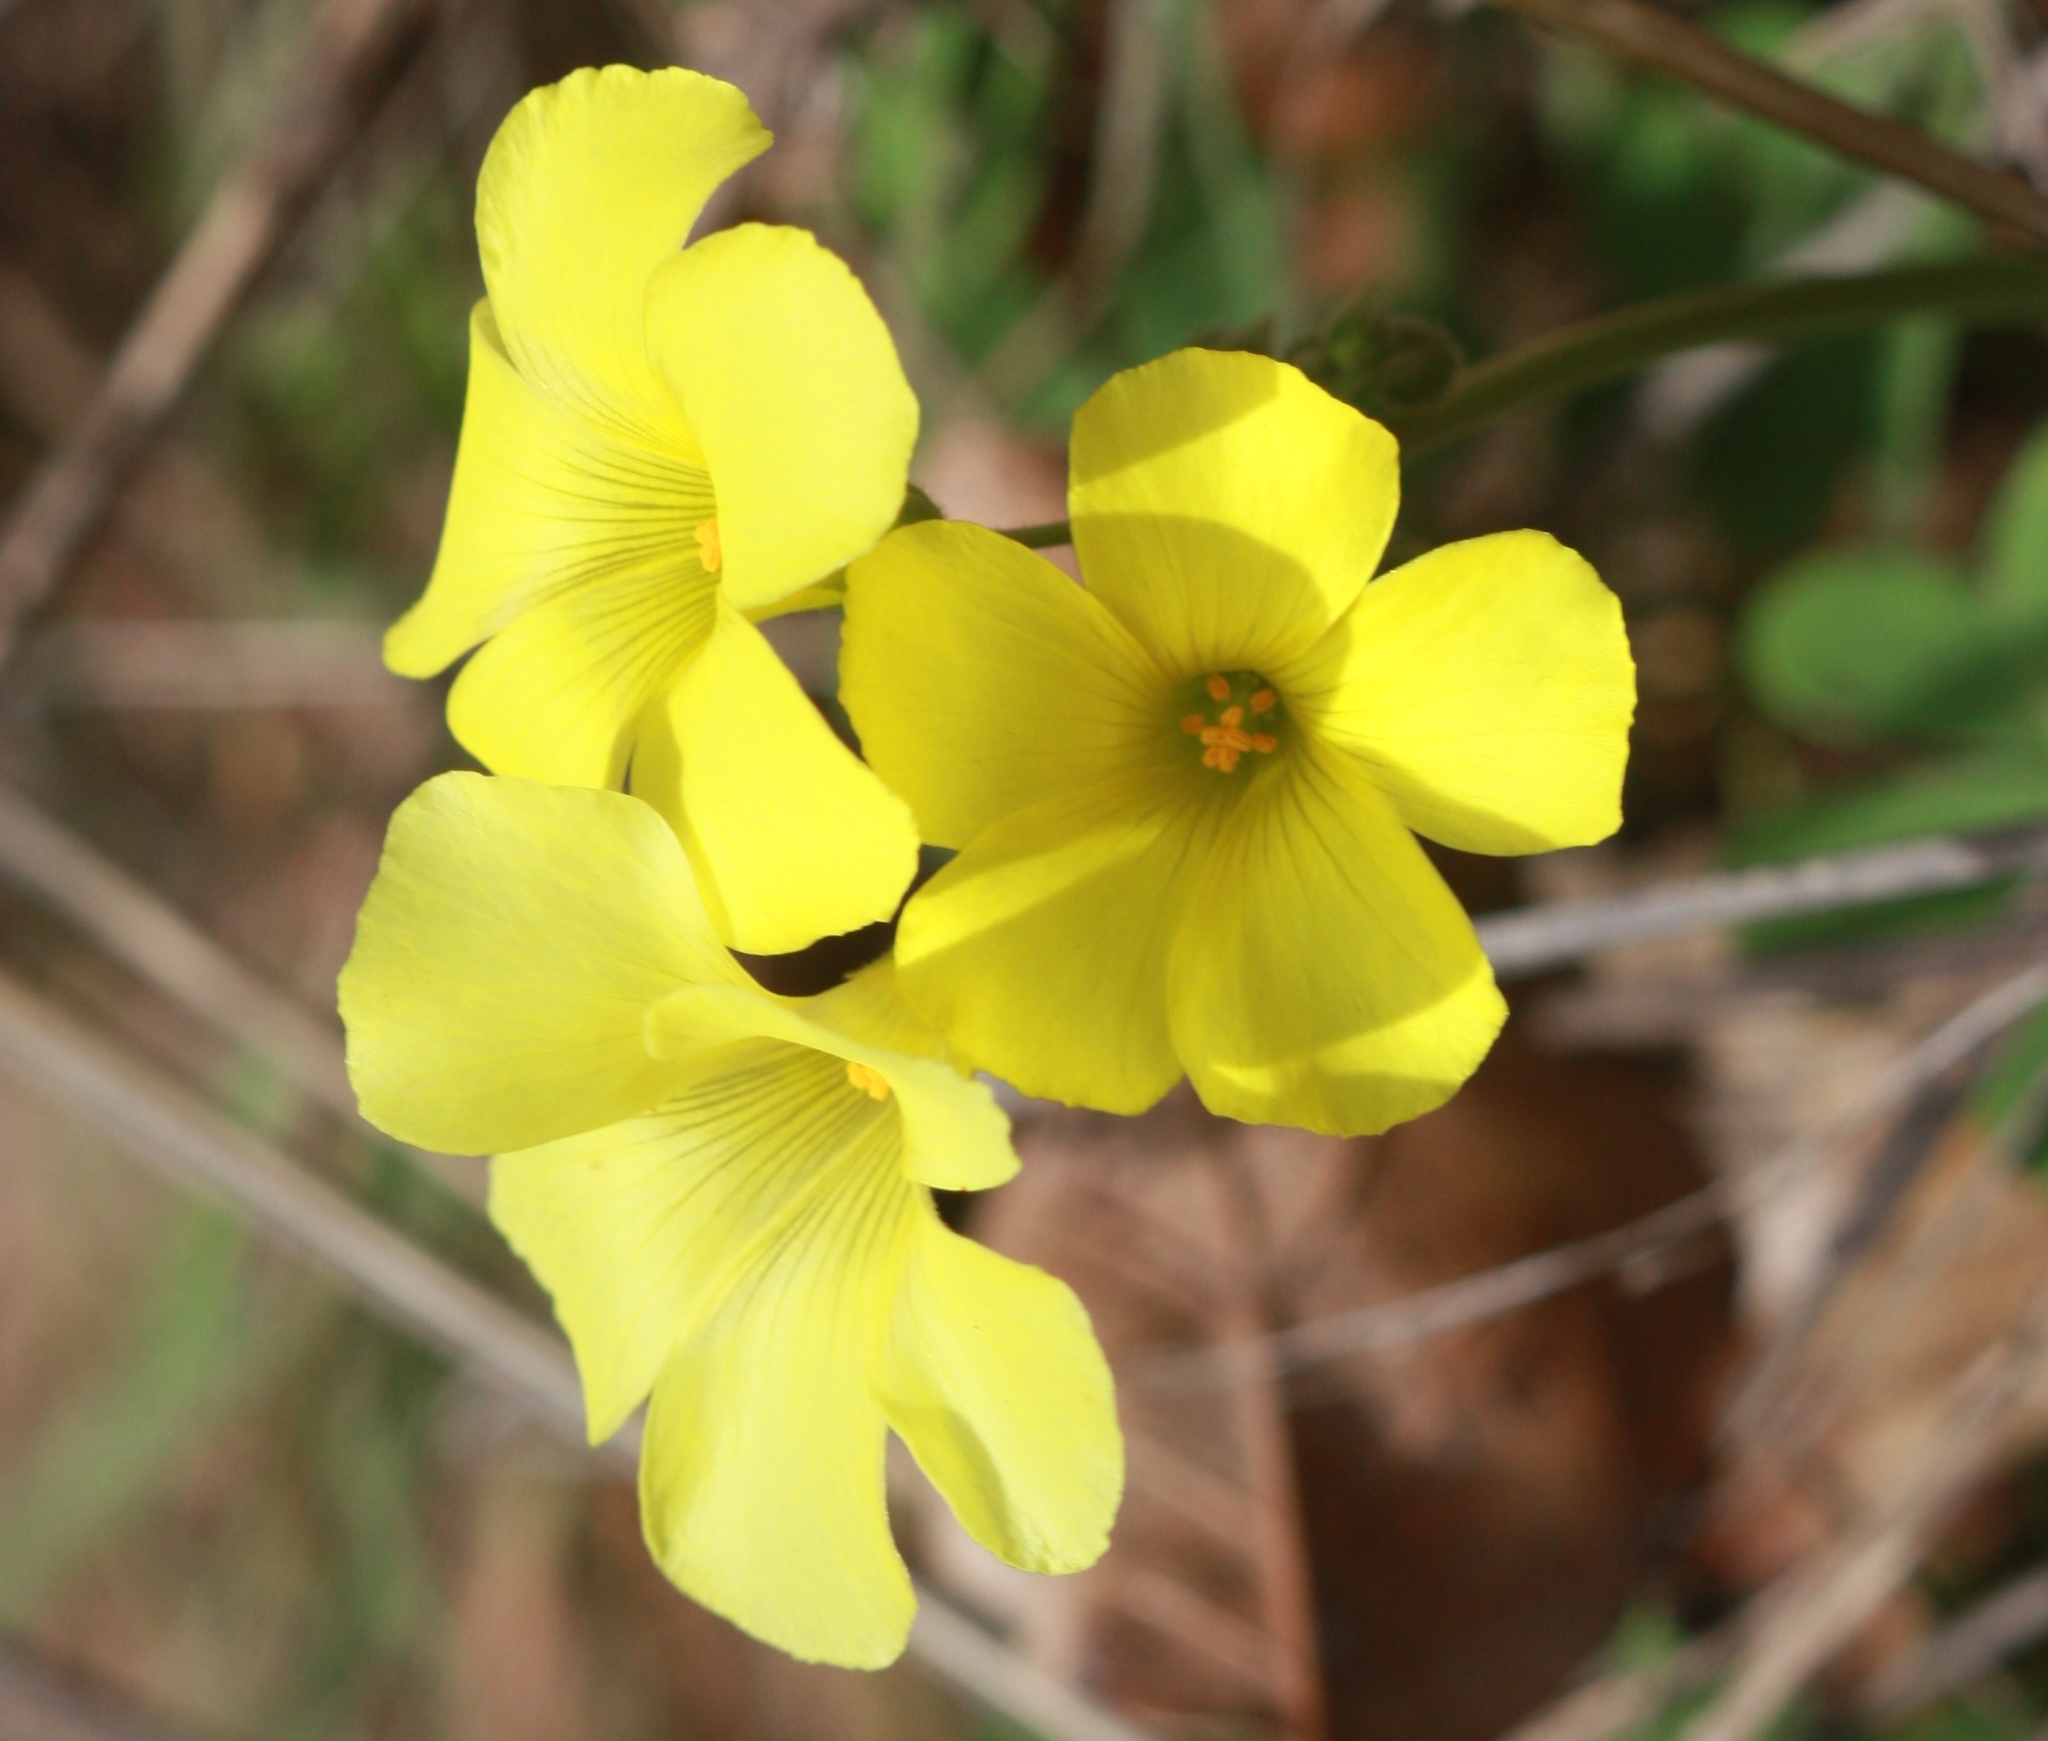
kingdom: Plantae
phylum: Tracheophyta
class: Magnoliopsida
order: Oxalidales
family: Oxalidaceae
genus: Oxalis
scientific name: Oxalis pes-caprae
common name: Bermuda-buttercup
